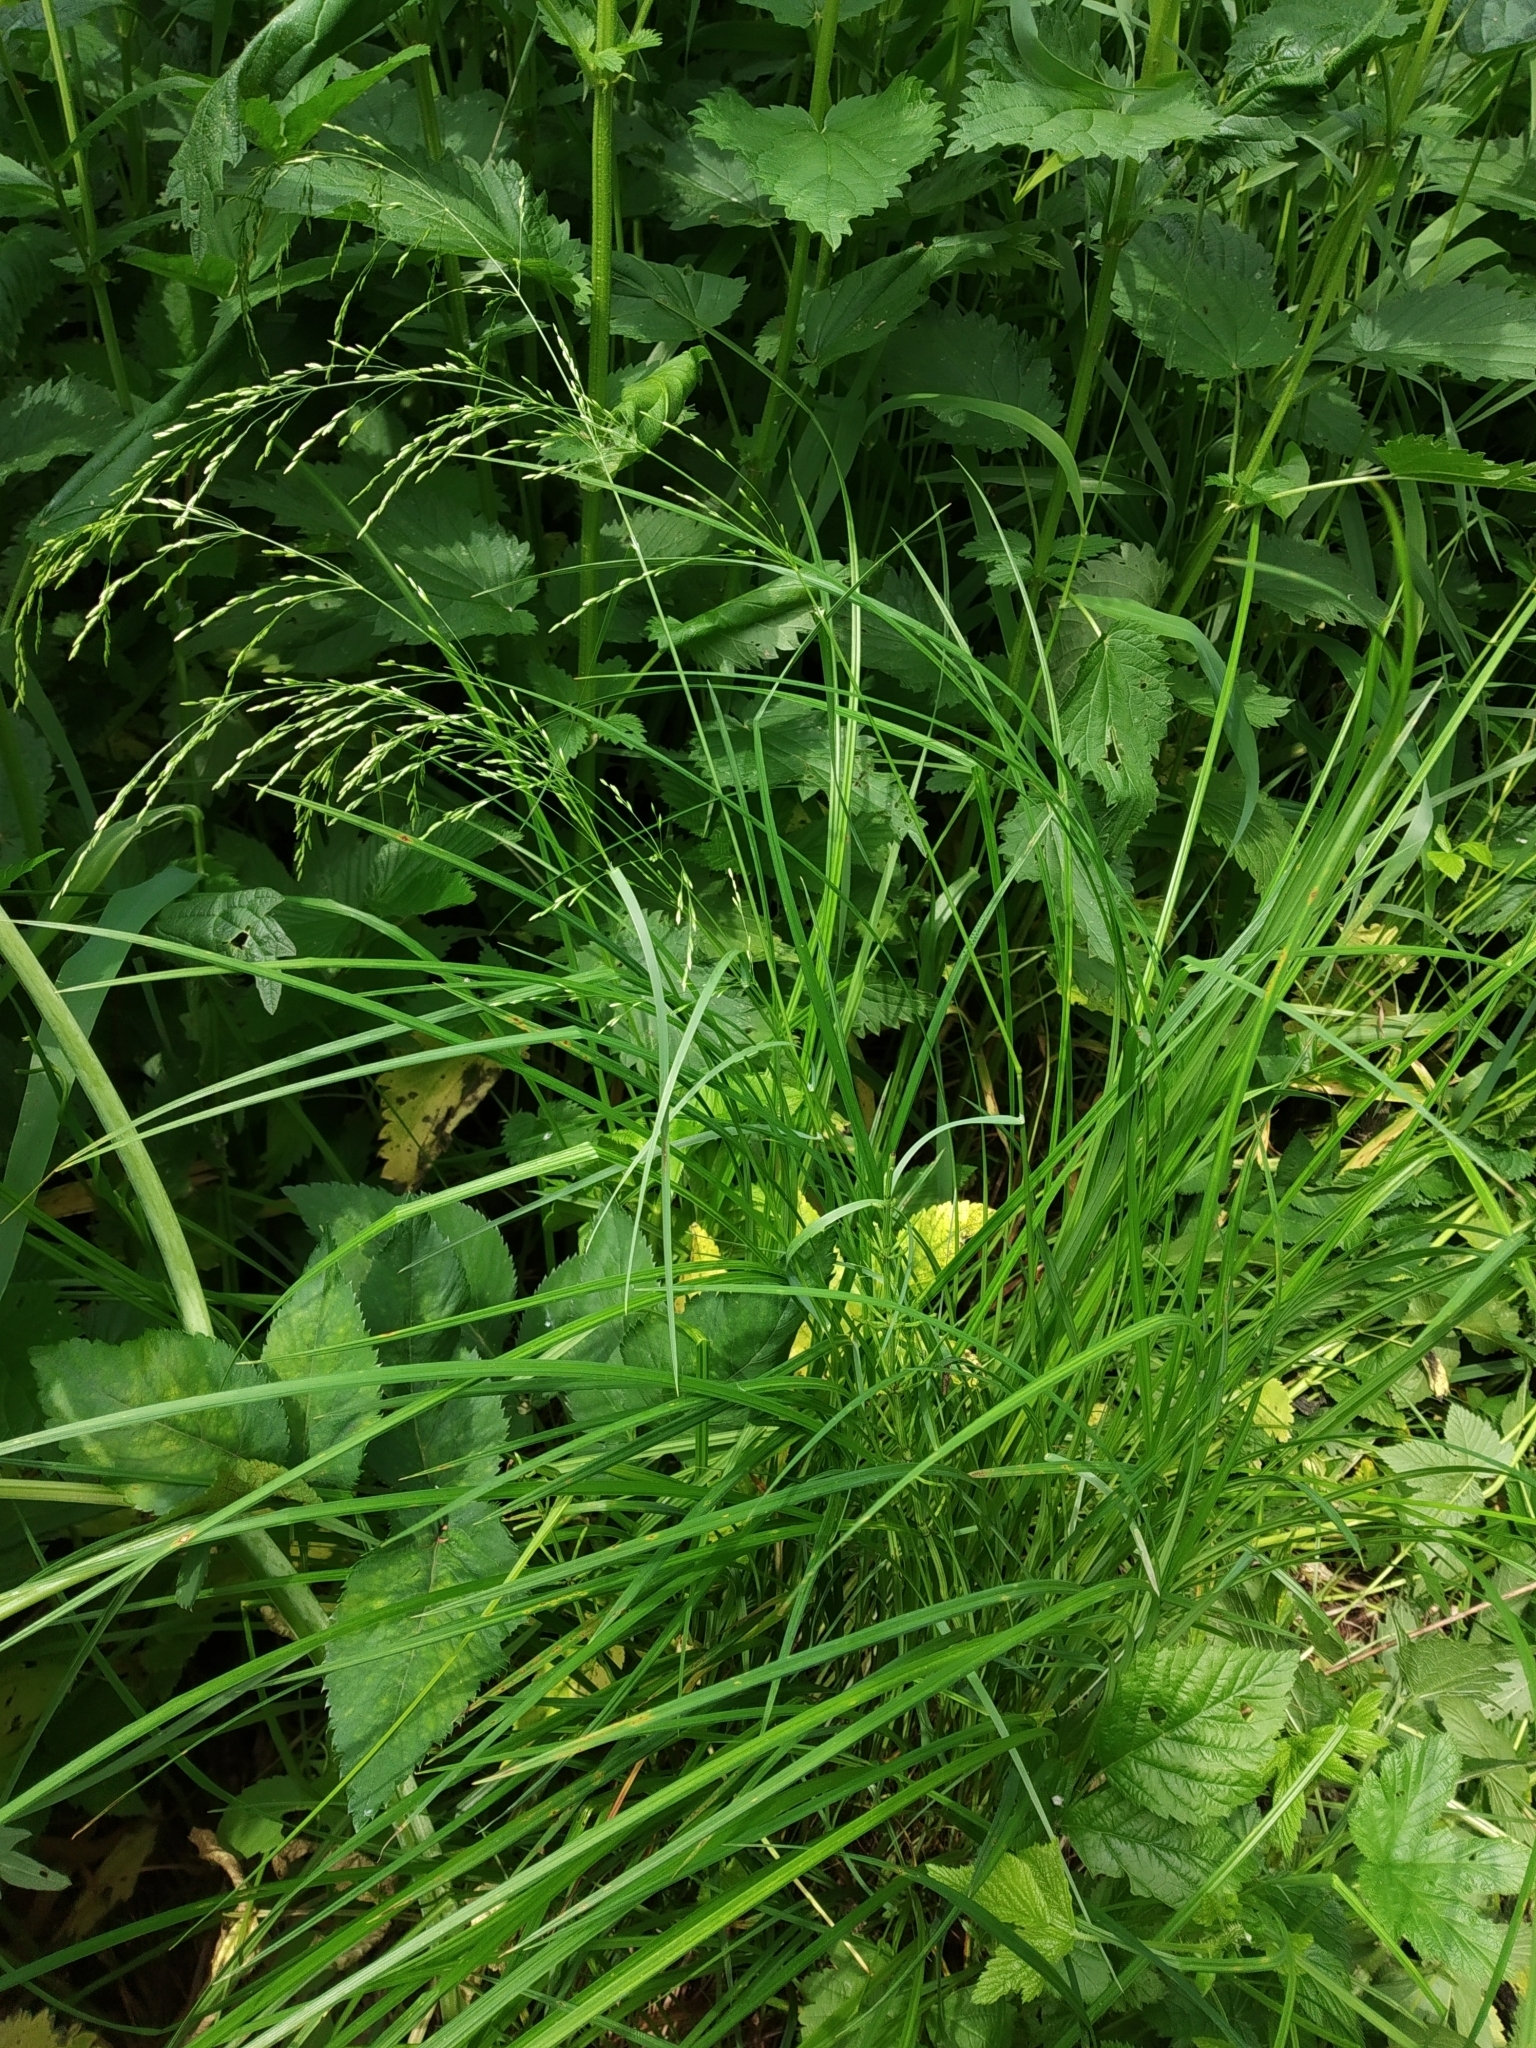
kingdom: Plantae
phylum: Tracheophyta
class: Liliopsida
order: Poales
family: Poaceae
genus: Poa
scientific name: Poa palustris
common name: Swamp meadow-grass
